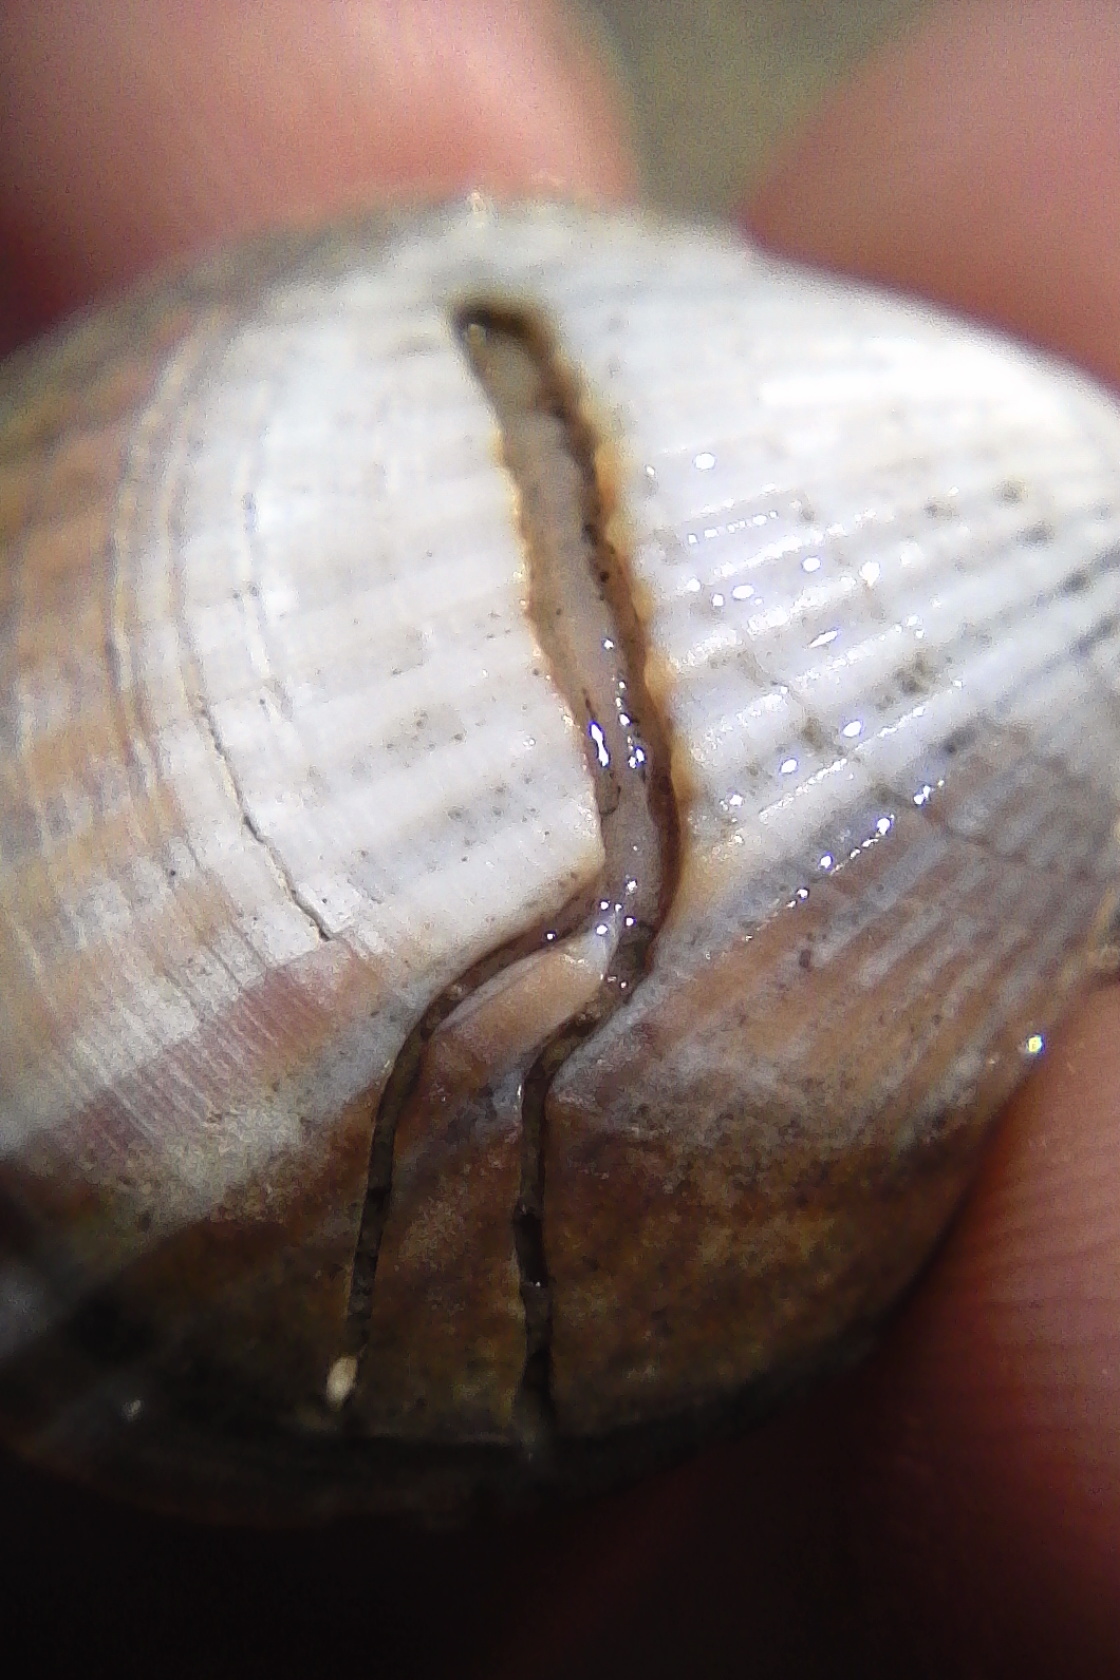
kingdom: Animalia
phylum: Annelida
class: Polychaeta
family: Spionidae
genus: Boccardia
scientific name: Boccardia acus
